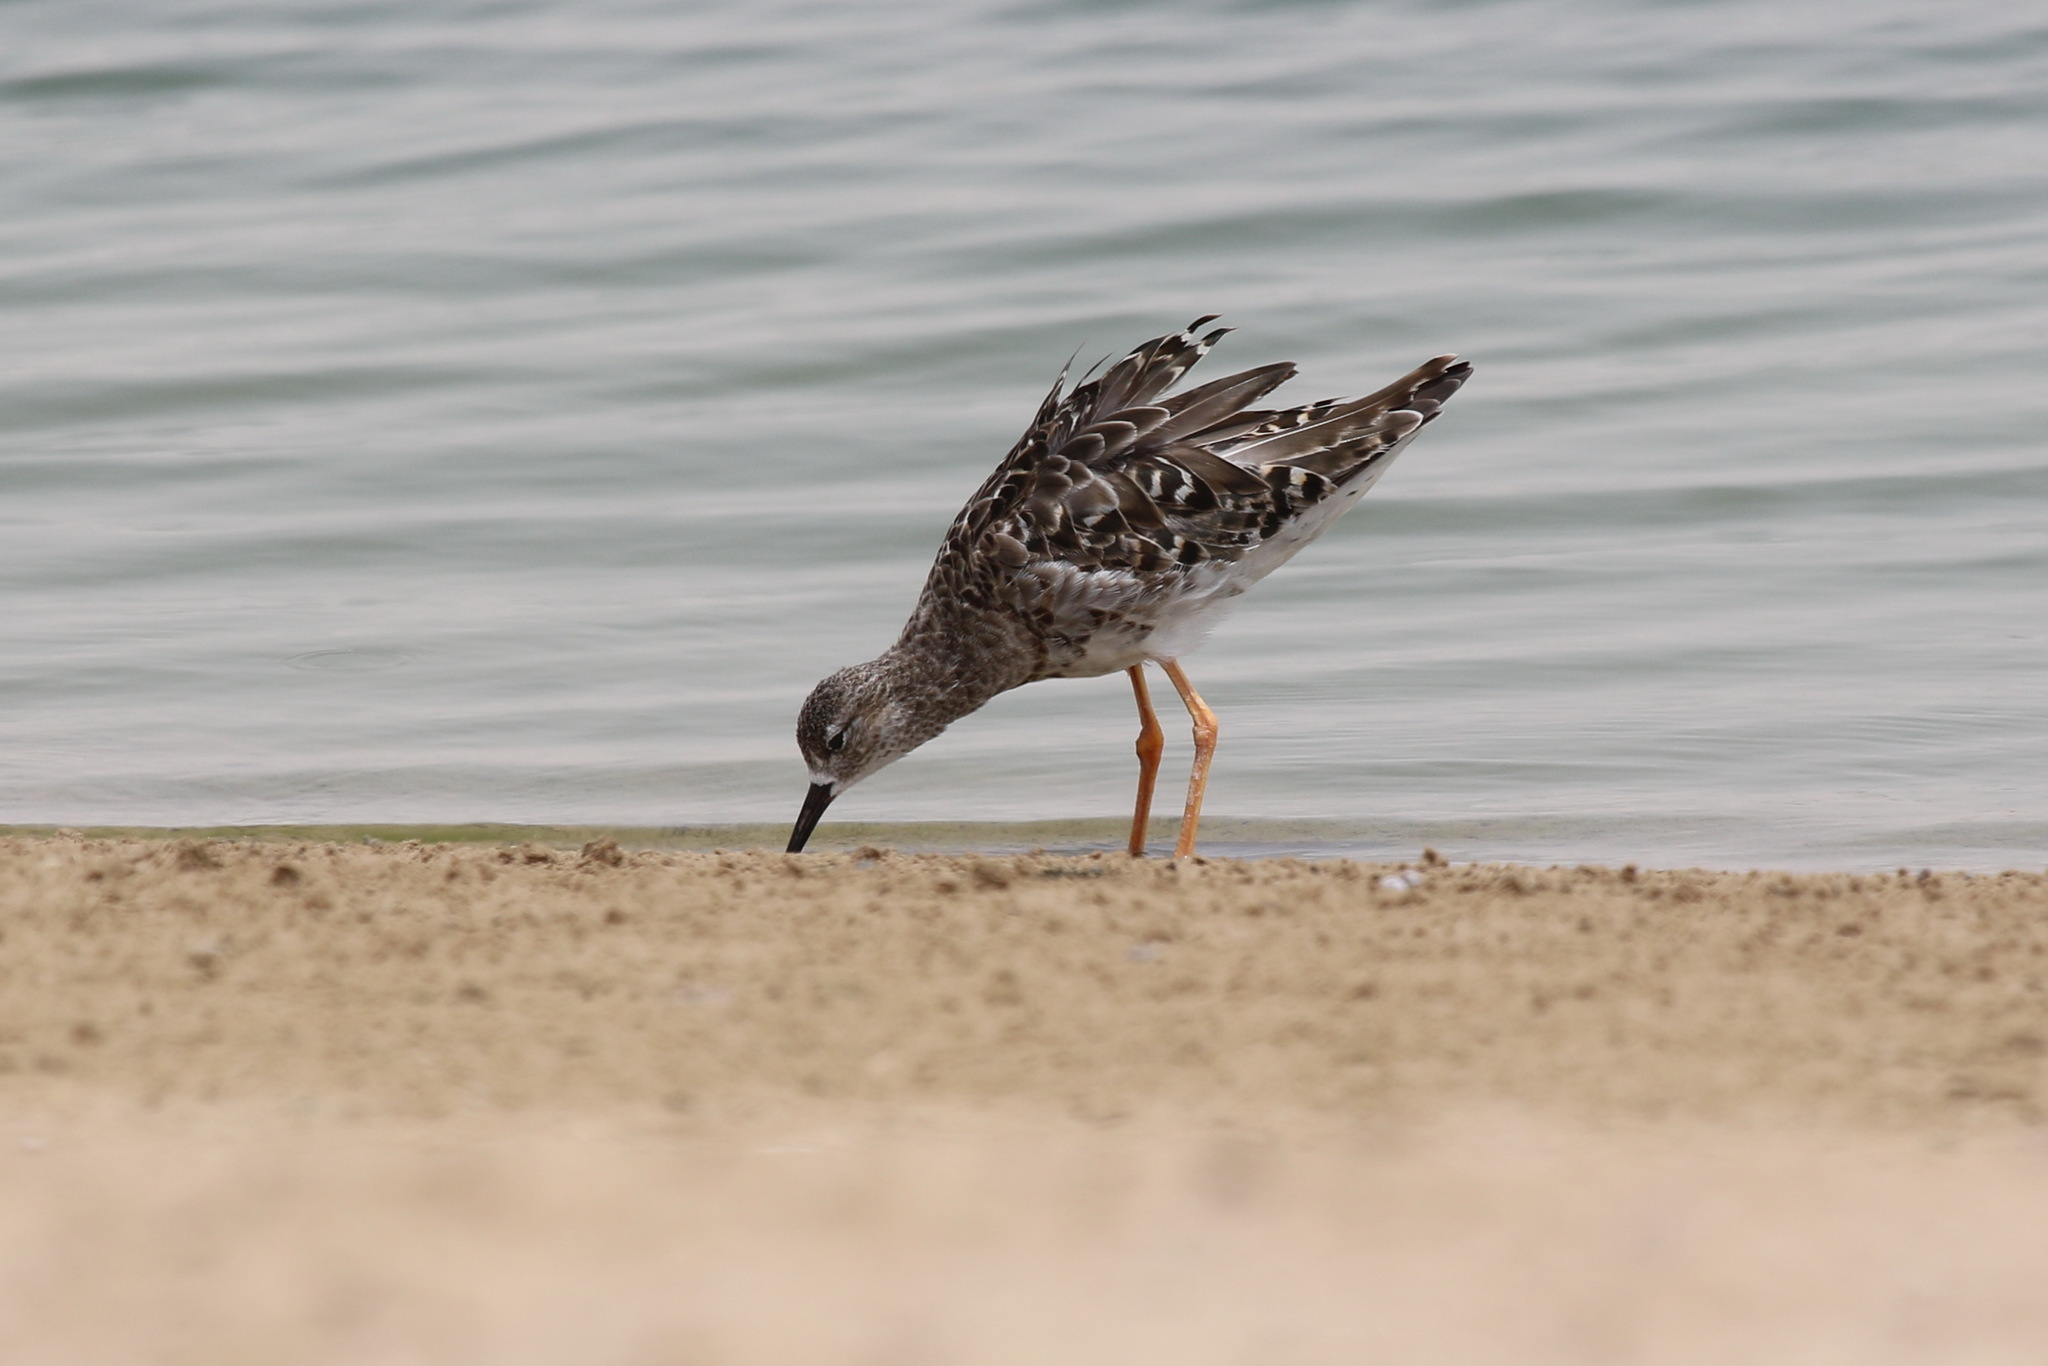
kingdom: Animalia
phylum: Chordata
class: Aves
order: Charadriiformes
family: Scolopacidae
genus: Calidris
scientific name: Calidris pugnax
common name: Ruff
